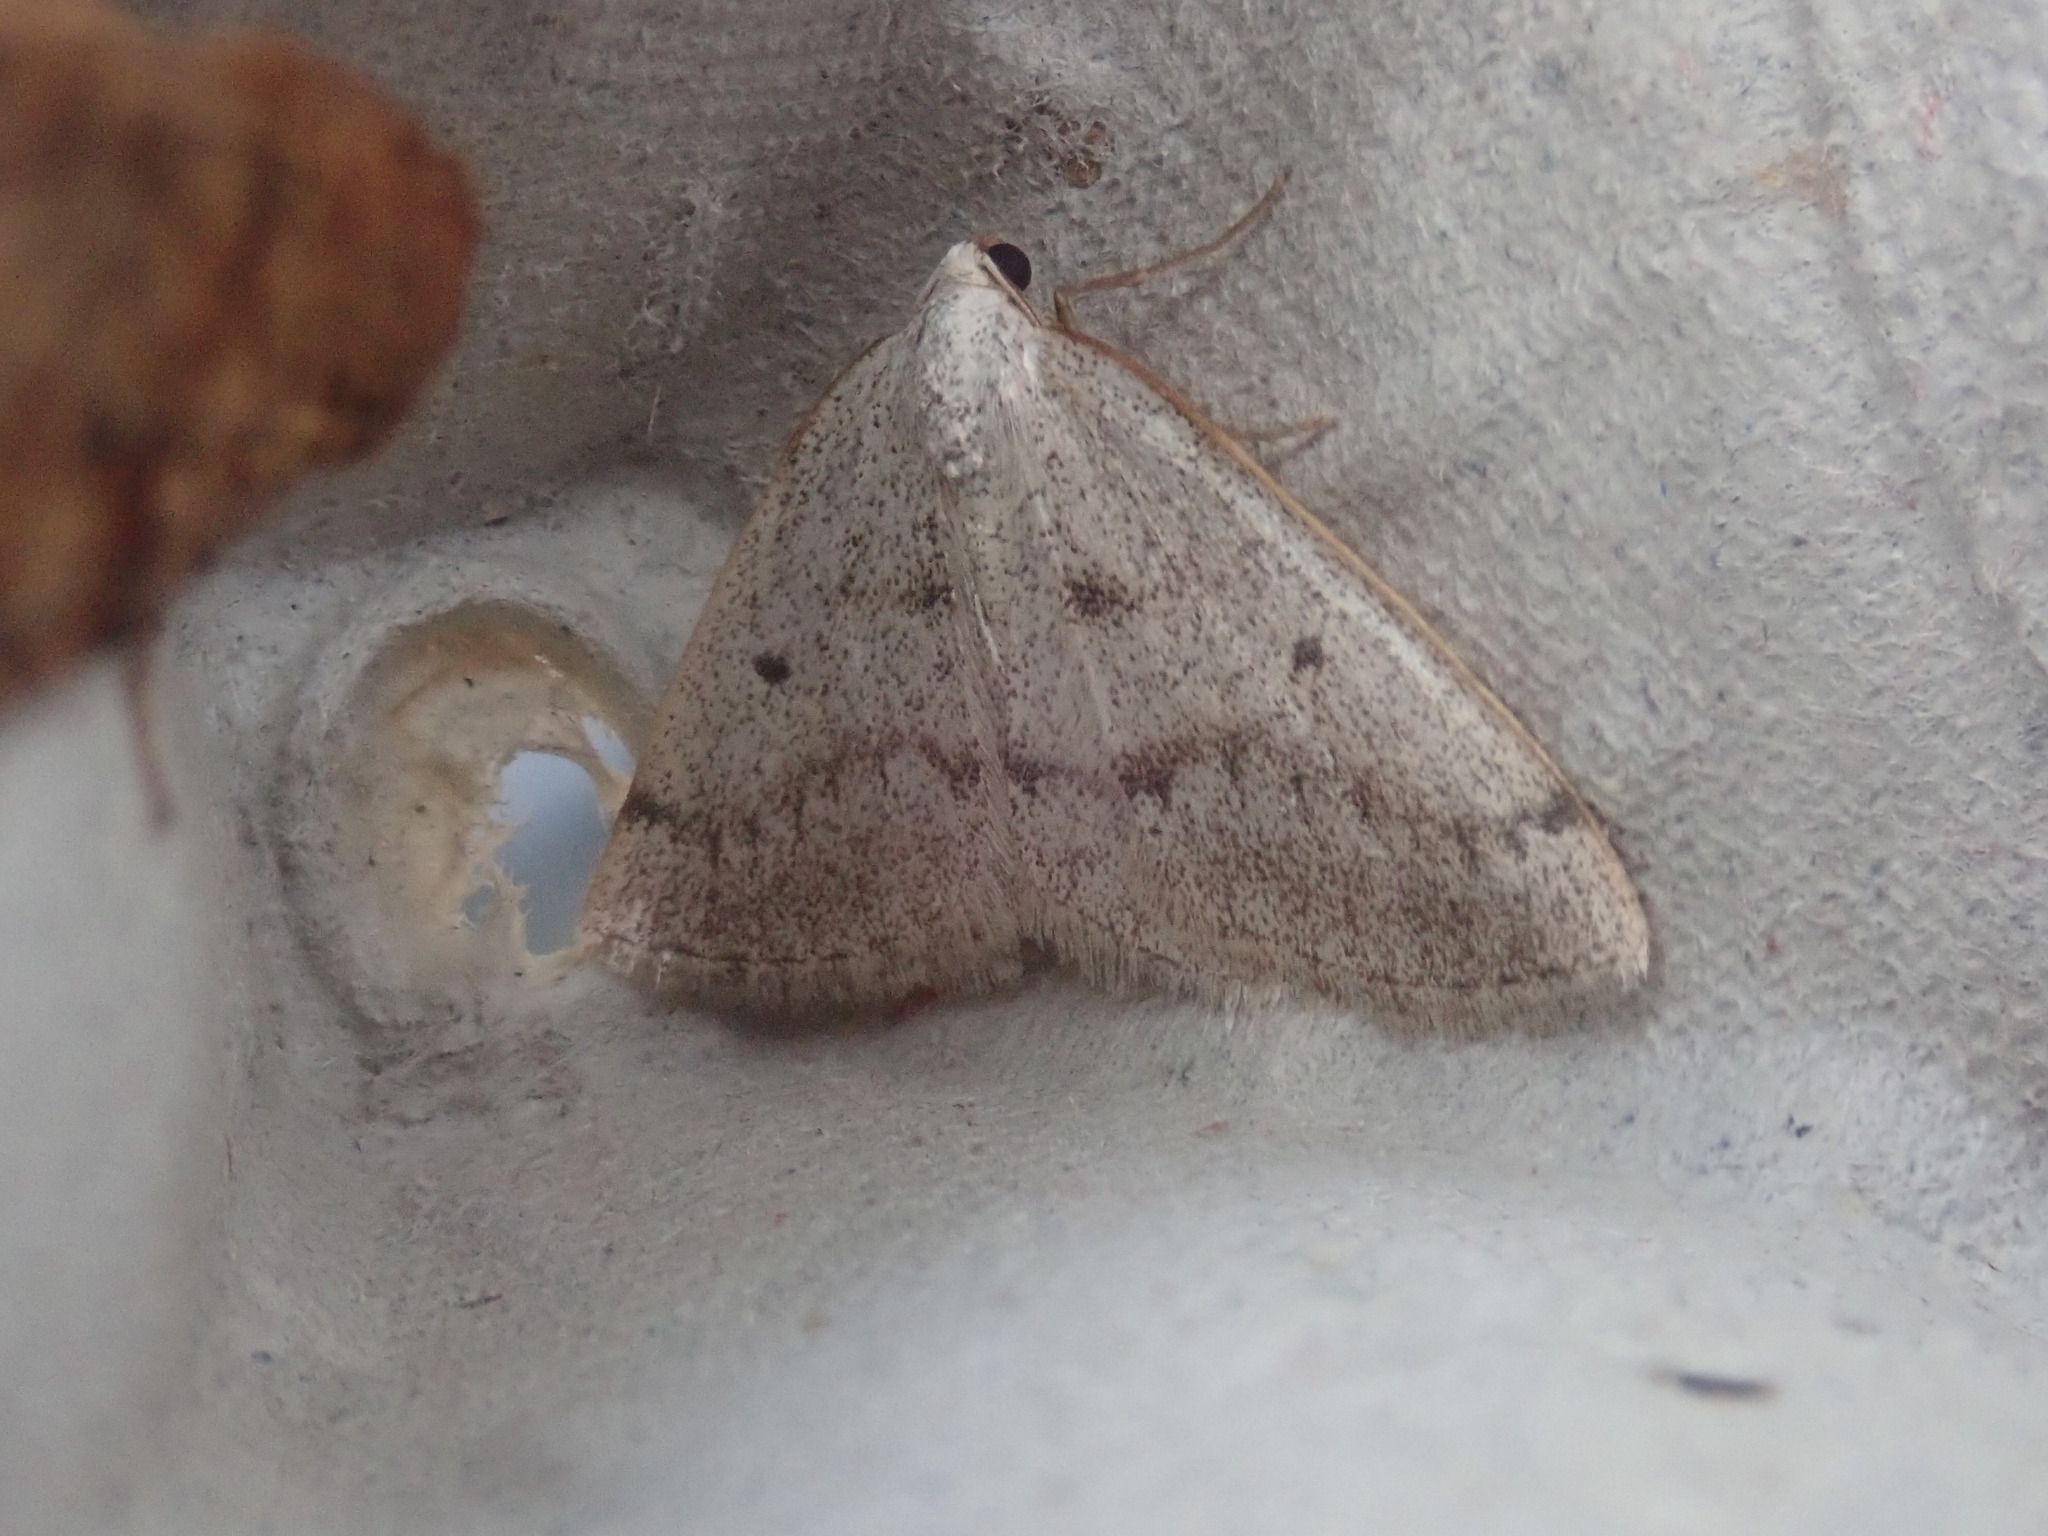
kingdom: Animalia
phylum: Arthropoda
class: Insecta
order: Lepidoptera
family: Geometridae
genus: Lomographa
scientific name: Lomographa glomeraria
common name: Gray spring moth
